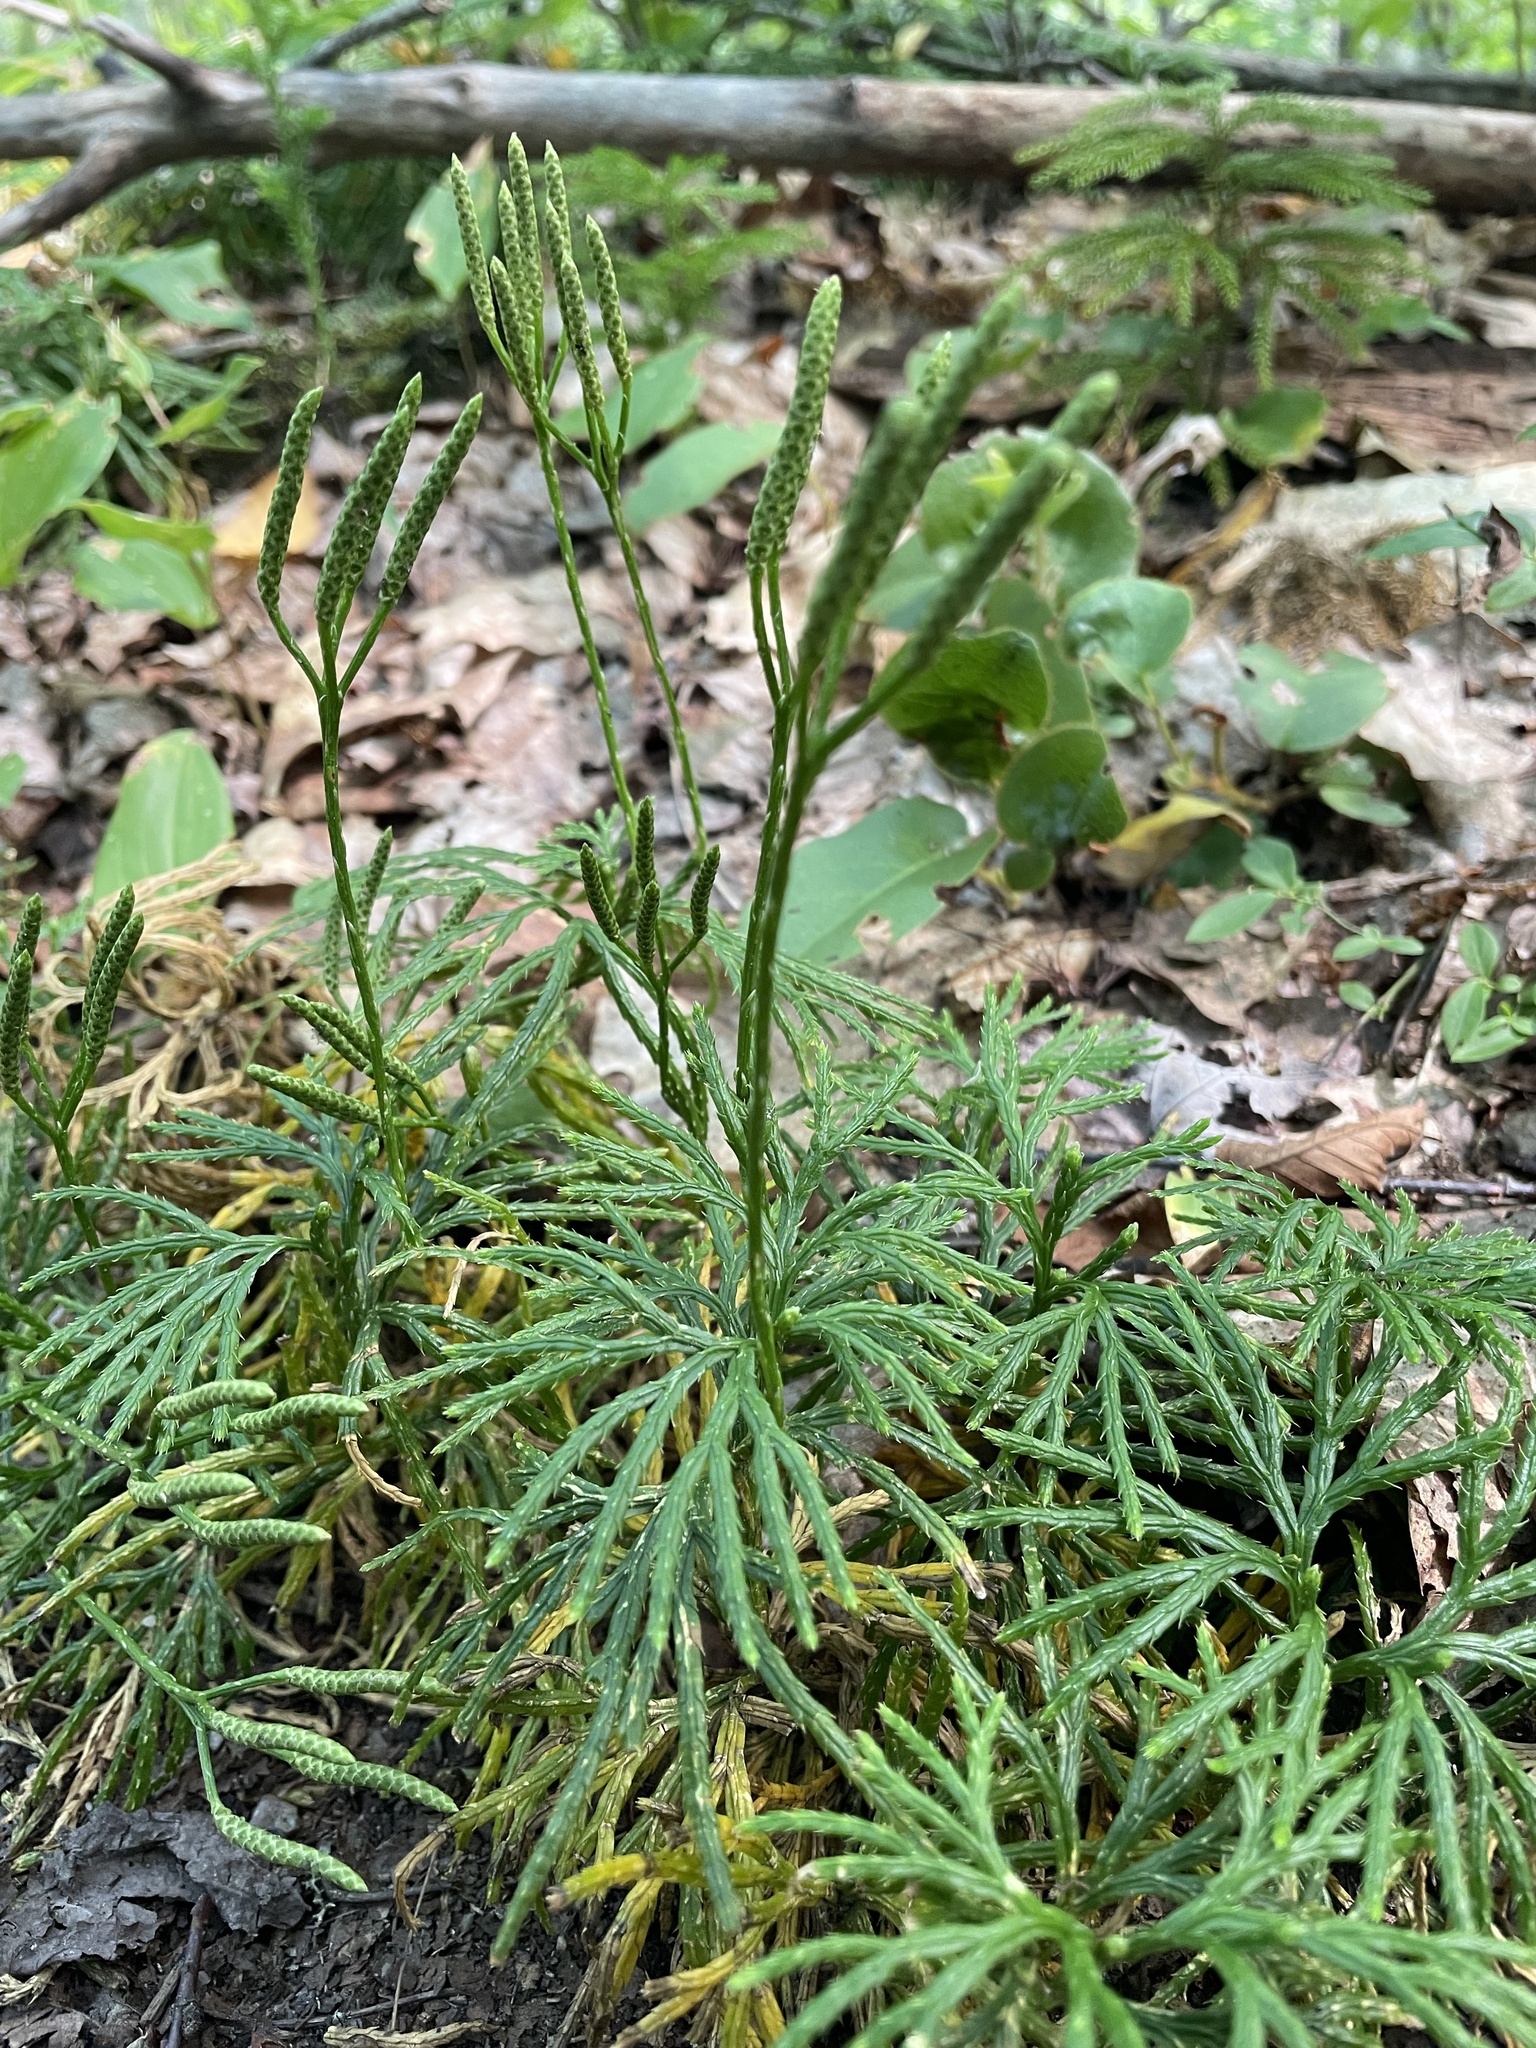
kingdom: Plantae
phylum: Tracheophyta
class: Lycopodiopsida
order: Lycopodiales
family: Lycopodiaceae
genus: Diphasiastrum
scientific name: Diphasiastrum digitatum
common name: Southern running-pine
